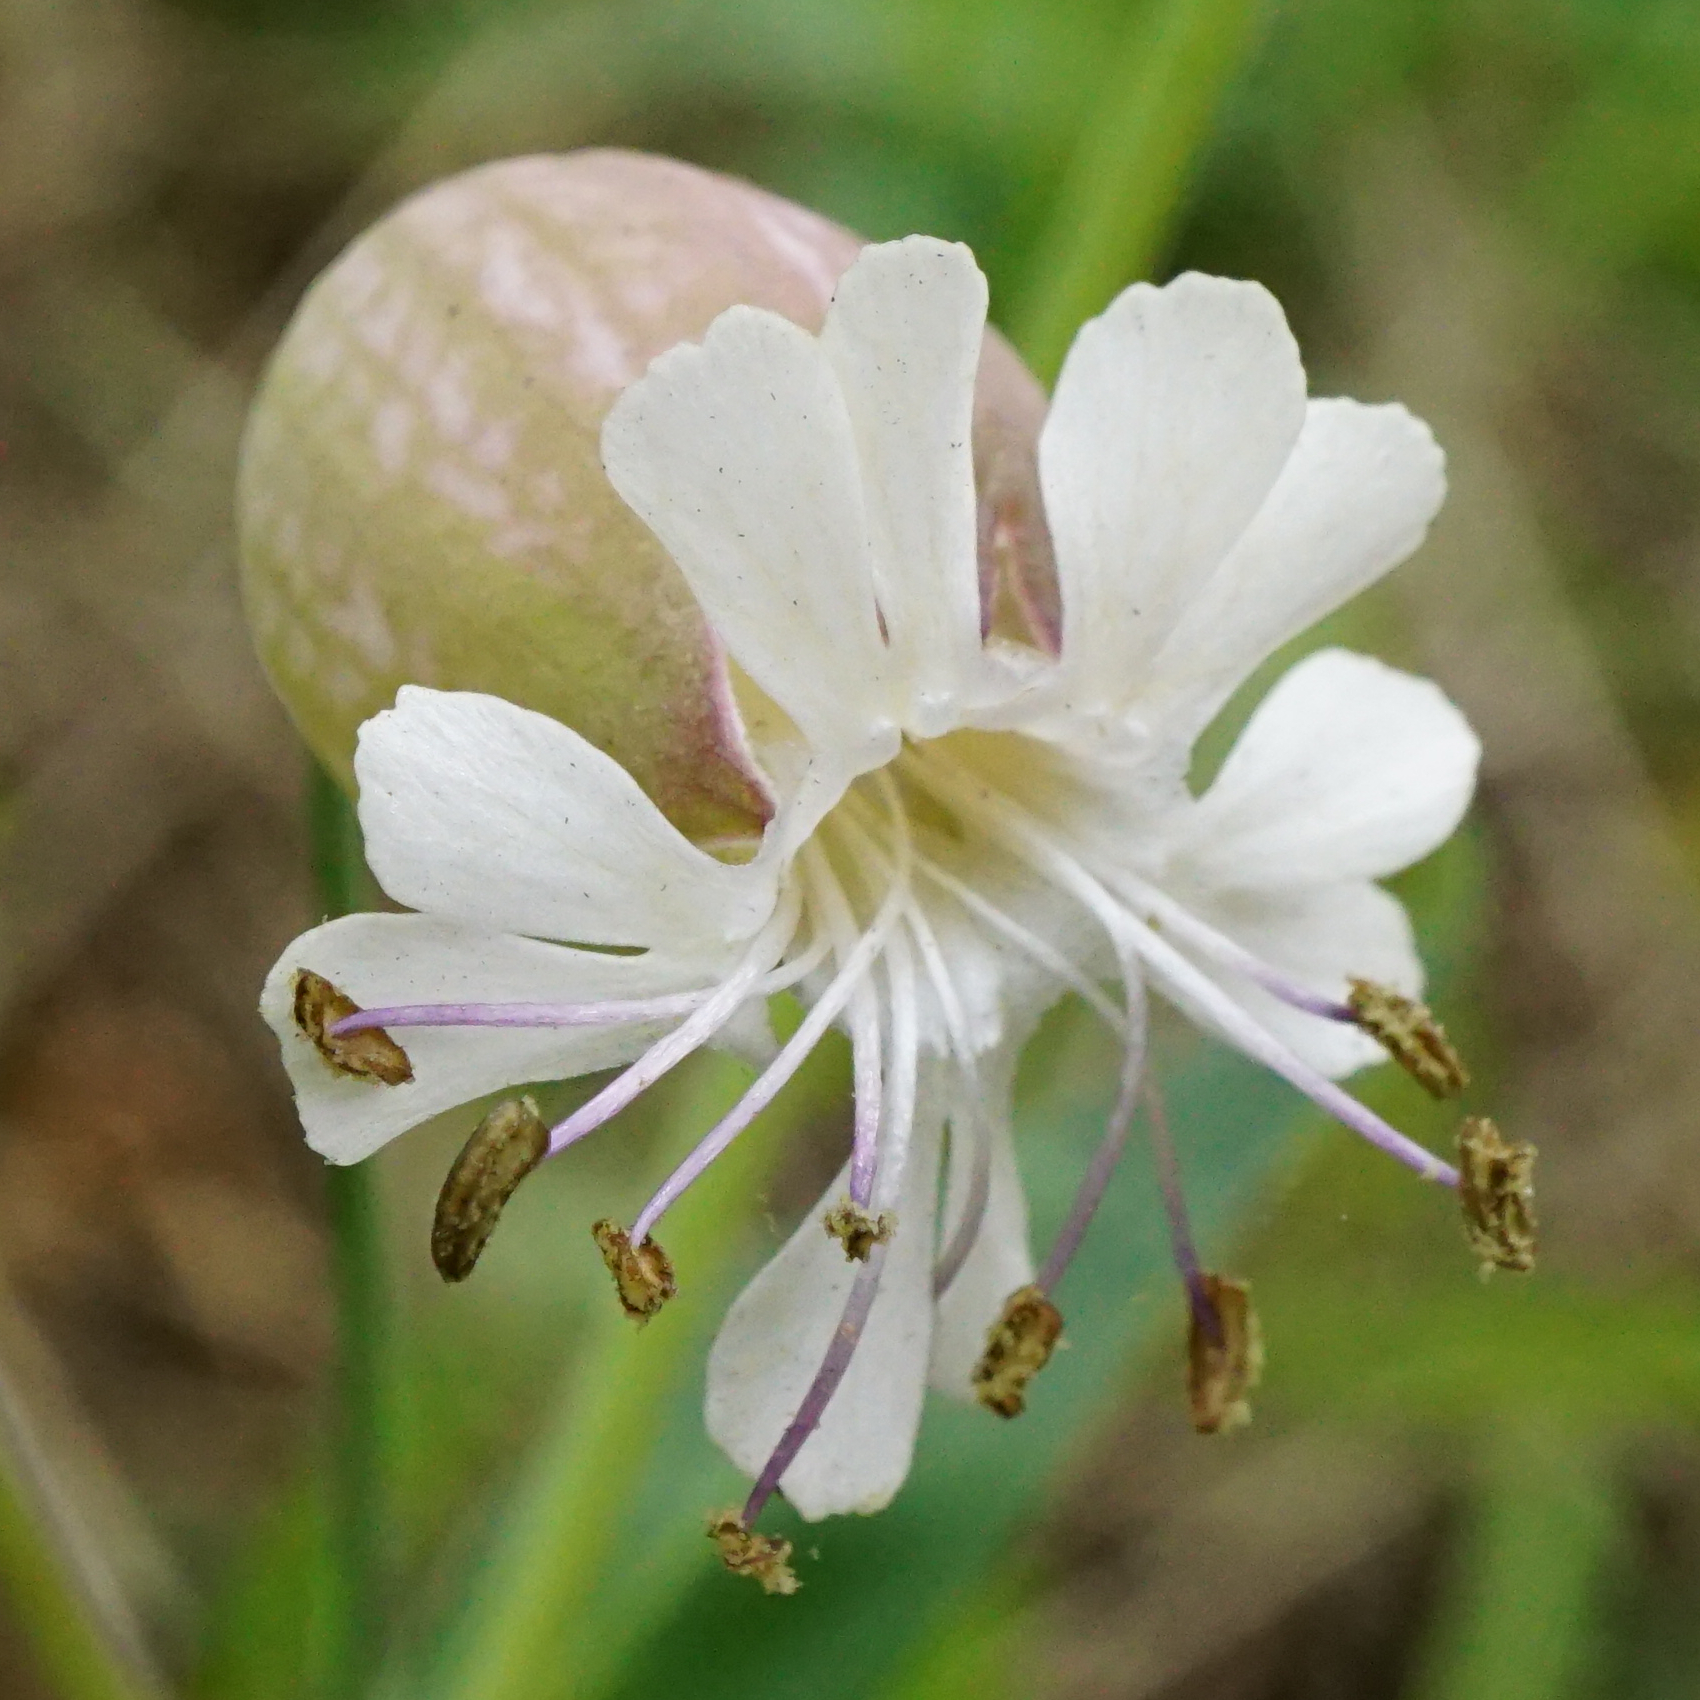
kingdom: Plantae
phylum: Tracheophyta
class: Magnoliopsida
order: Caryophyllales
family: Caryophyllaceae
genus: Silene
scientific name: Silene vulgaris
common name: Bladder campion
